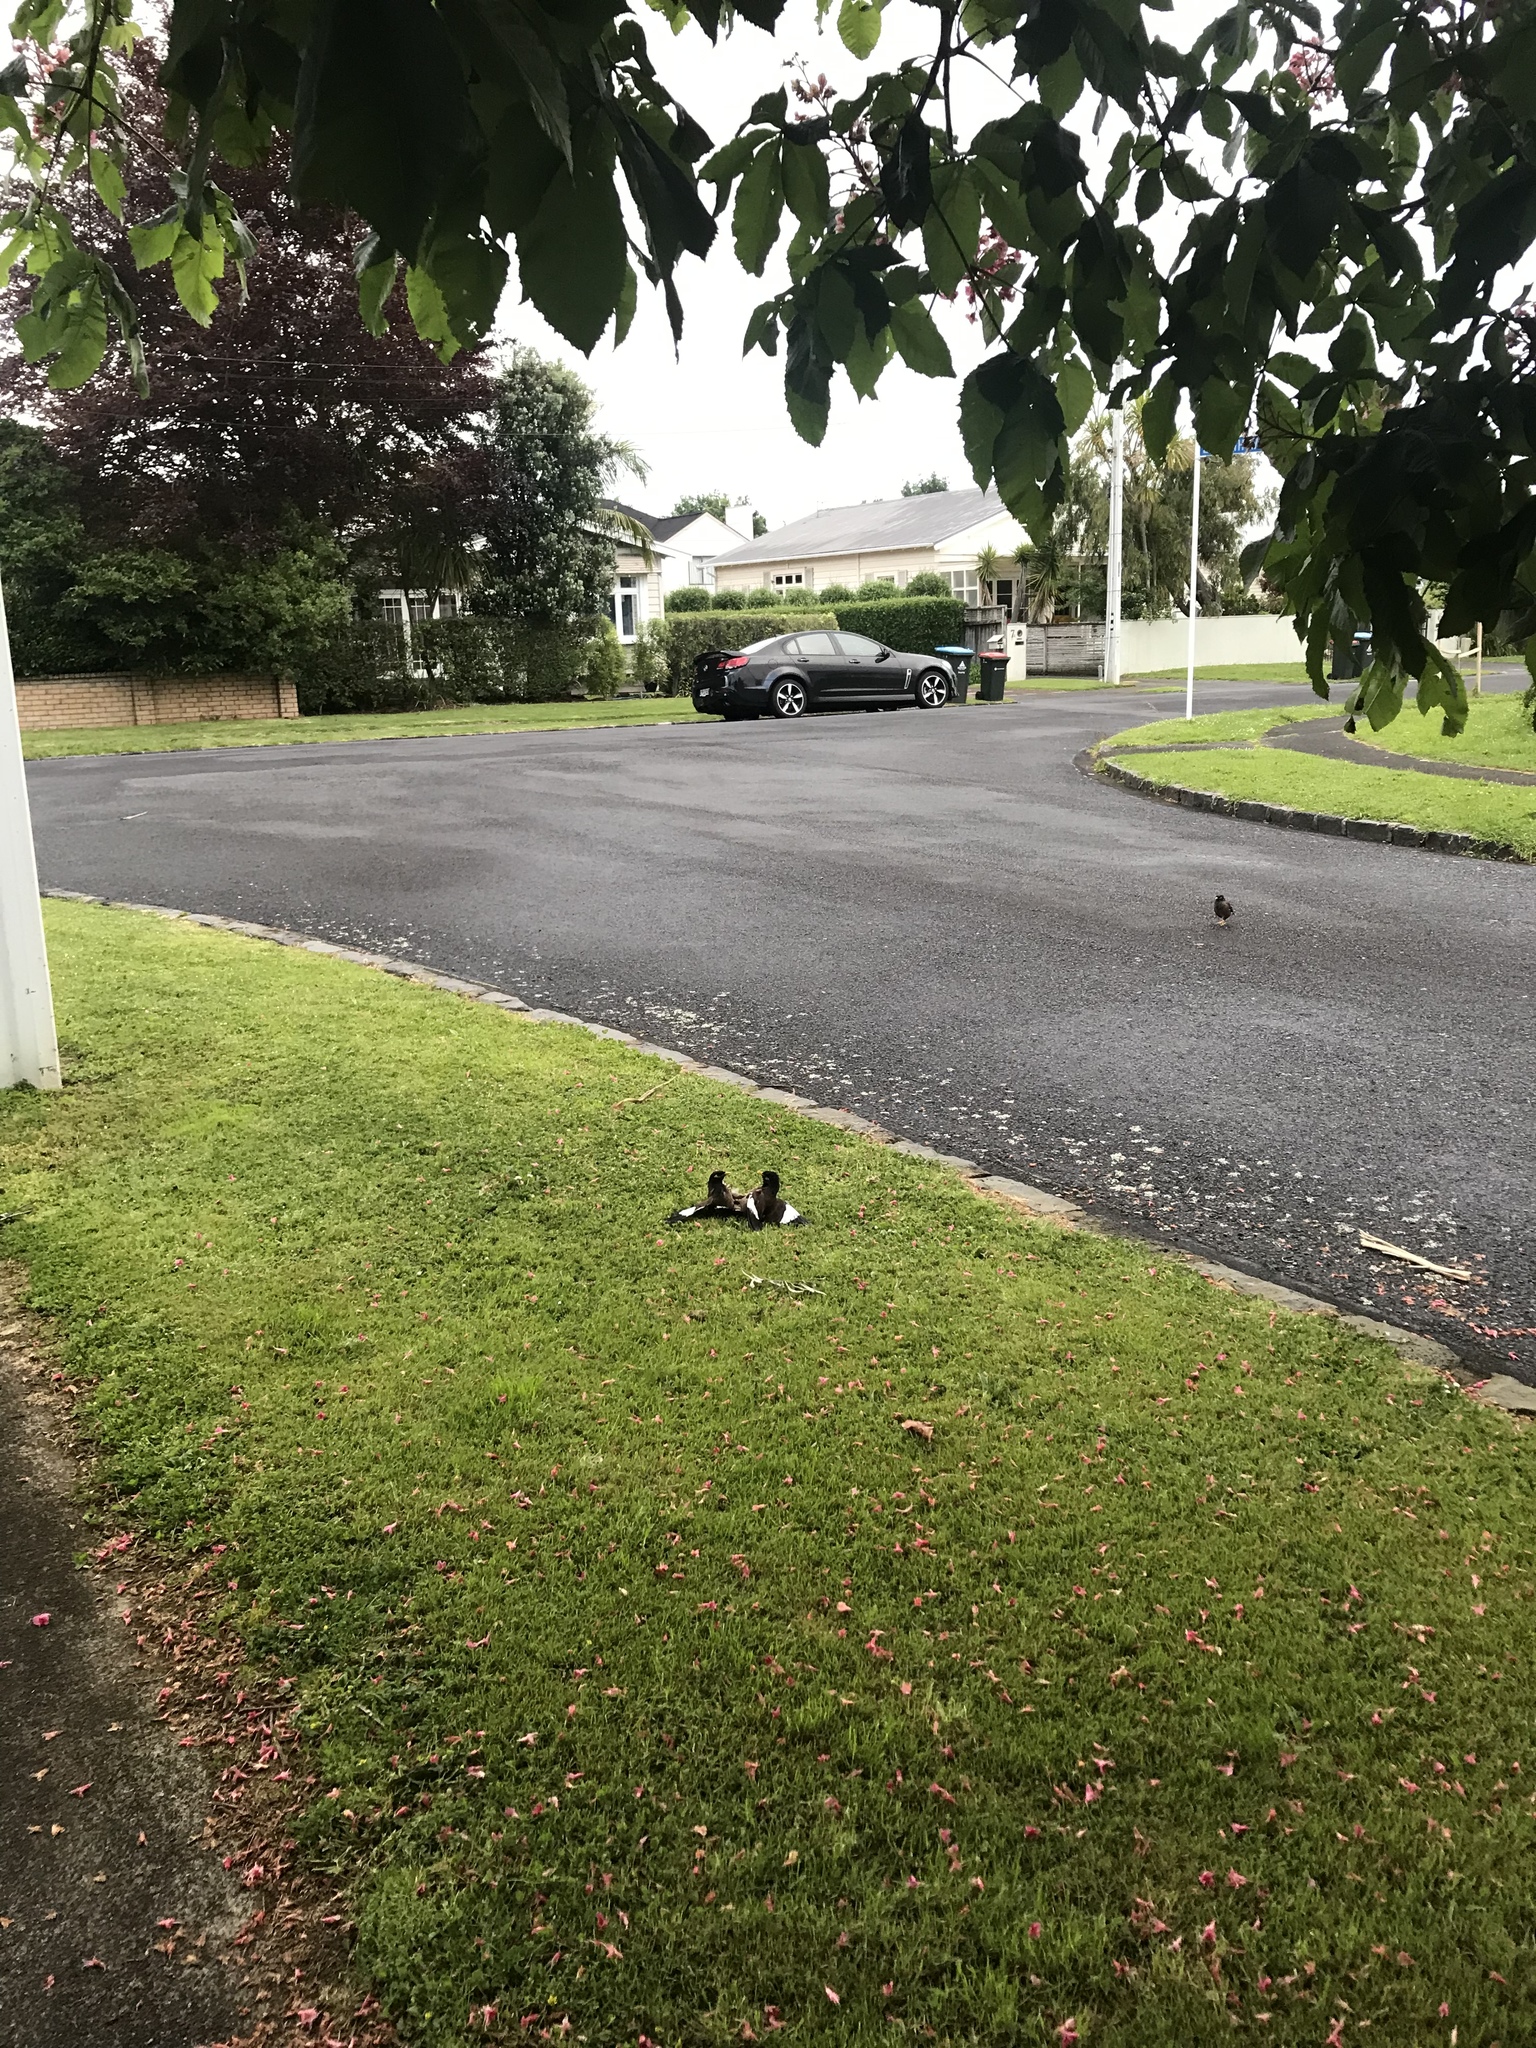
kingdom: Animalia
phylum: Chordata
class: Aves
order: Passeriformes
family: Sturnidae
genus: Acridotheres
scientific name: Acridotheres tristis
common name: Common myna
